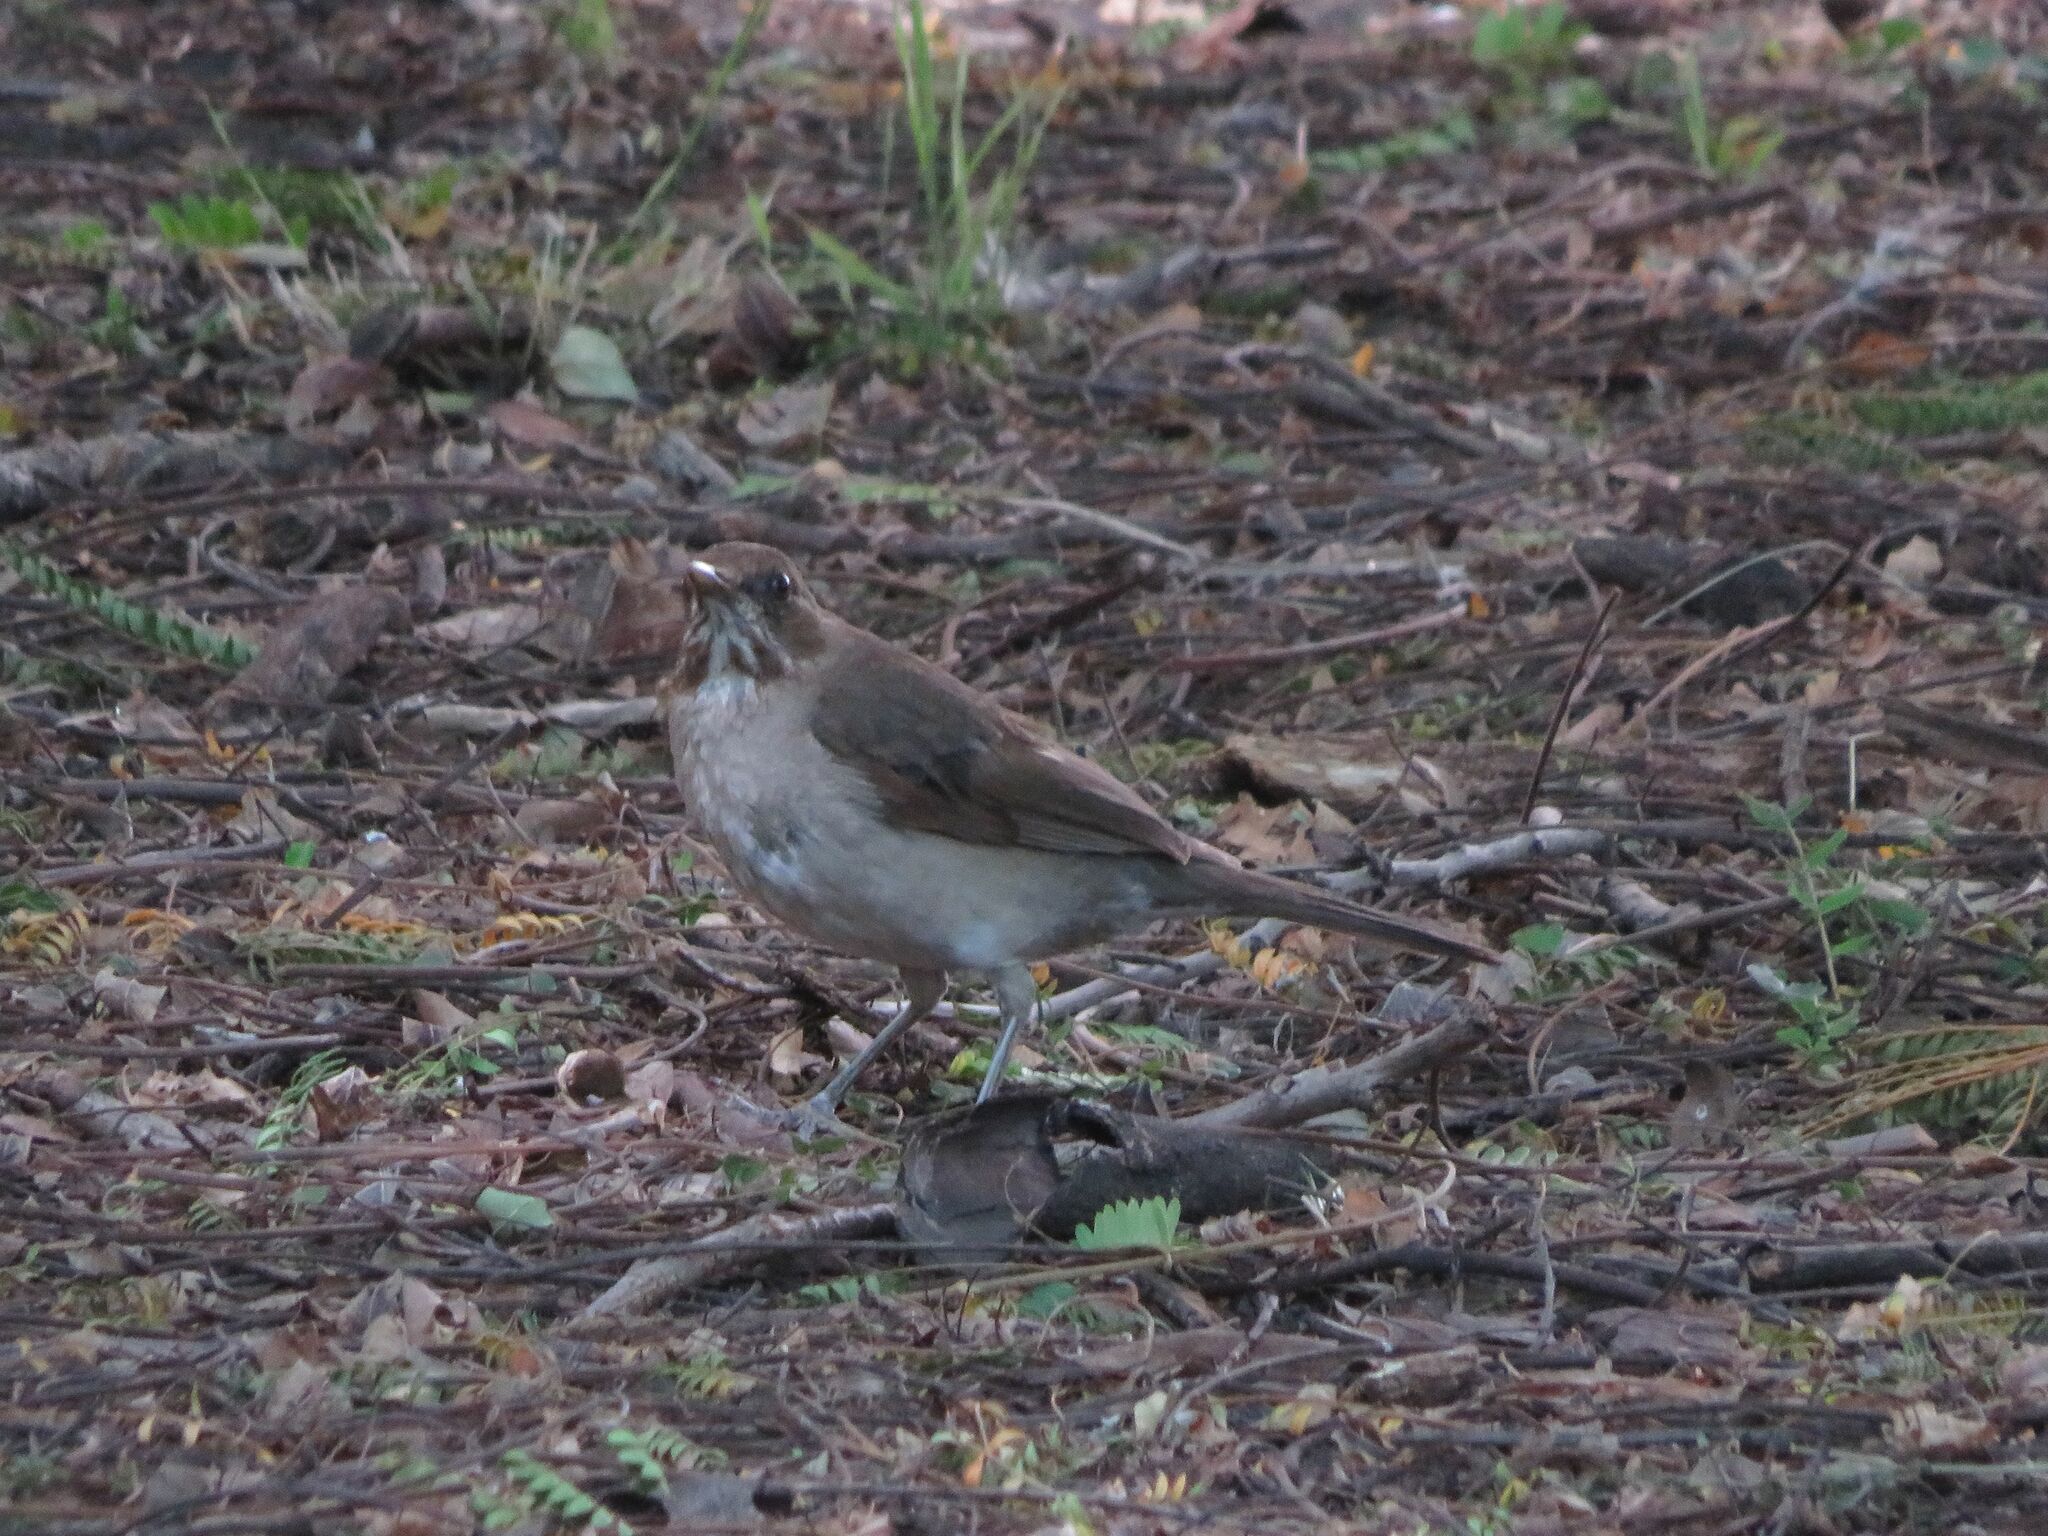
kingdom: Animalia
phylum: Chordata
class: Aves
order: Passeriformes
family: Turdidae
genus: Turdus
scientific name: Turdus amaurochalinus
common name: Creamy-bellied thrush
